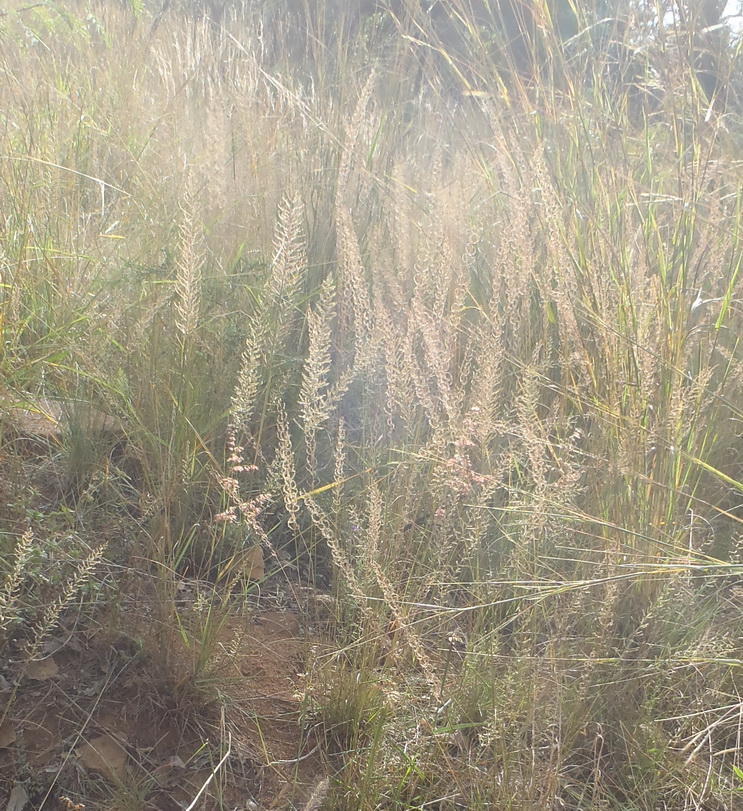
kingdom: Plantae
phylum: Tracheophyta
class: Liliopsida
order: Poales
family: Poaceae
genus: Pogonarthria
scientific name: Pogonarthria squarrosa
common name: Grass
